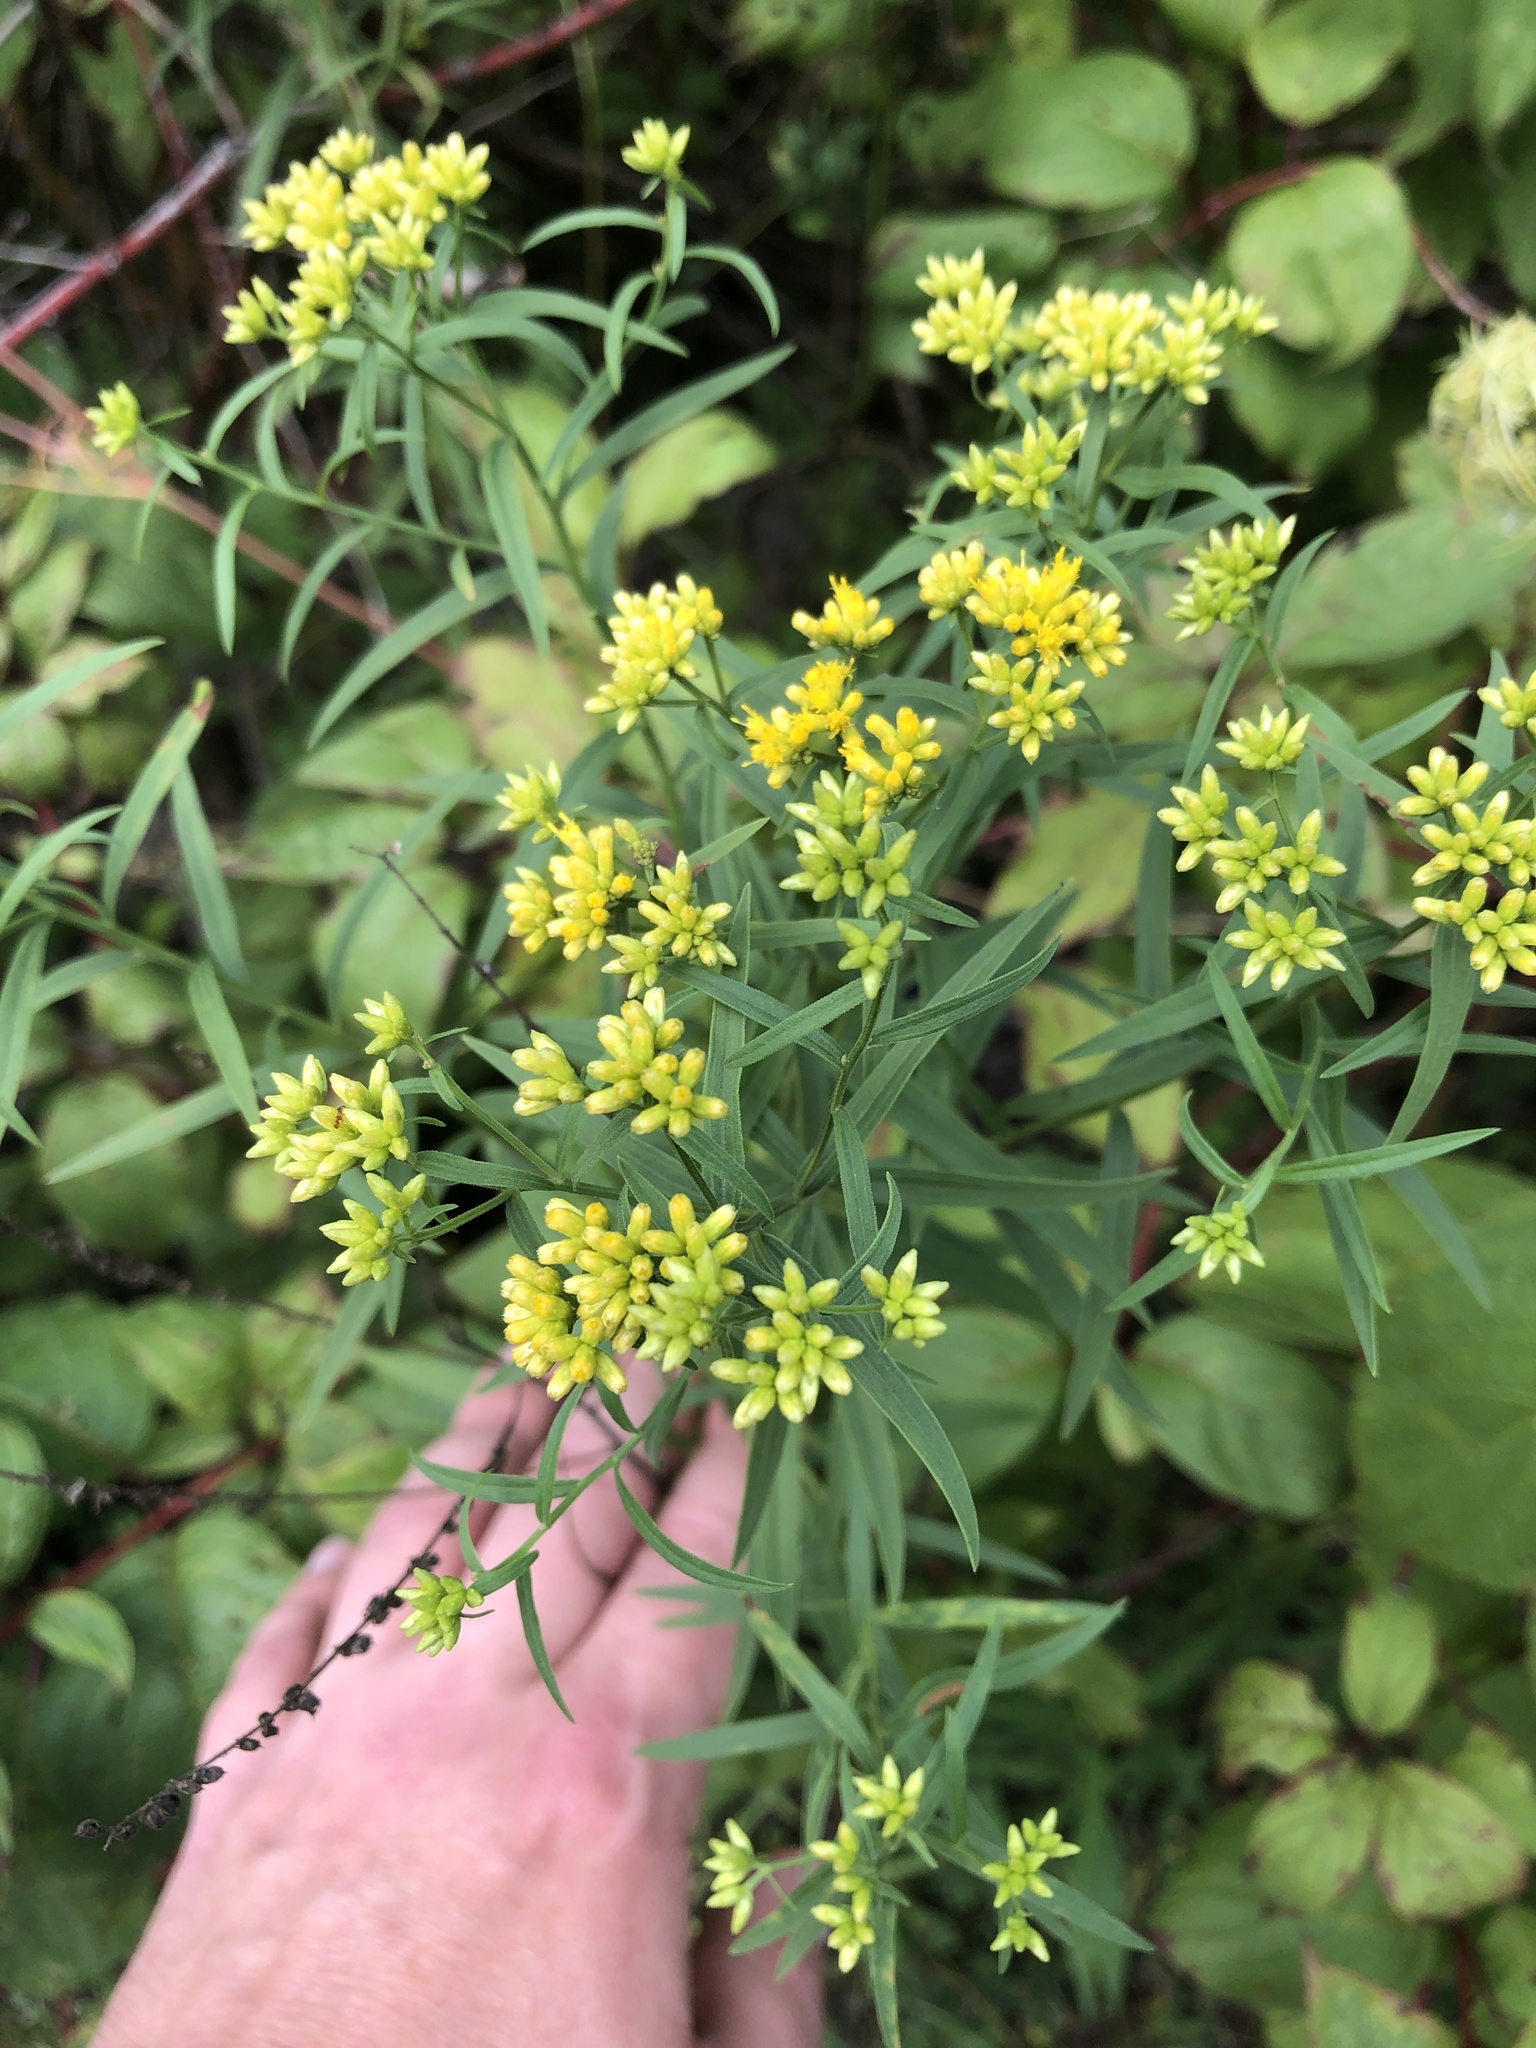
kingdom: Plantae
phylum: Tracheophyta
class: Magnoliopsida
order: Asterales
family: Asteraceae
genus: Euthamia
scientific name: Euthamia graminifolia
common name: Common goldentop
